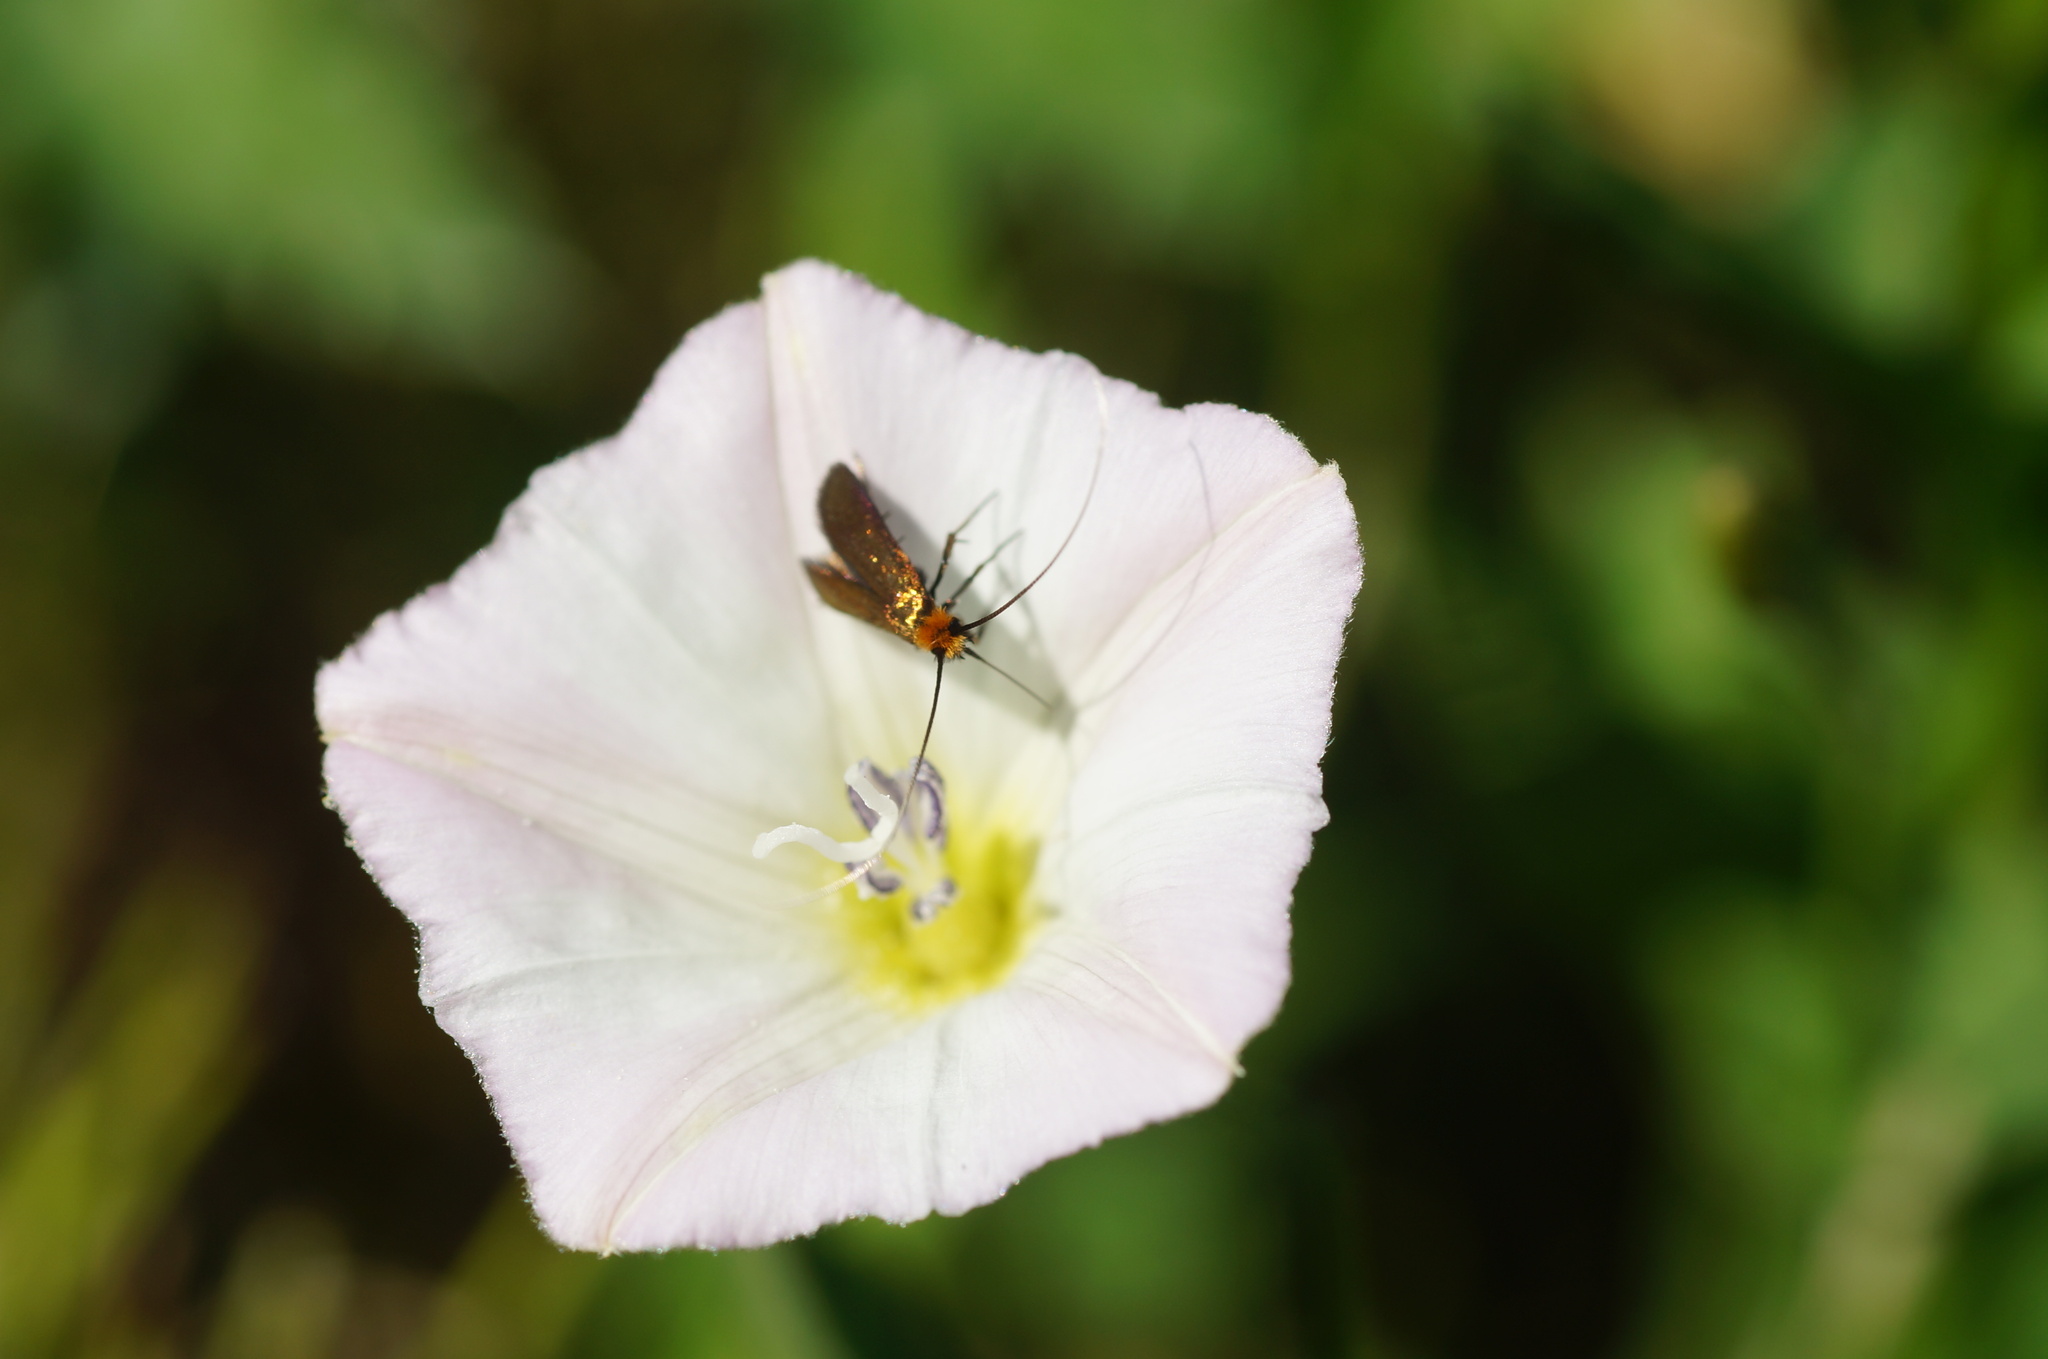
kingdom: Animalia
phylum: Arthropoda
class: Insecta
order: Lepidoptera
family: Adelidae
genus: Cauchas
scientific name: Cauchas rufimitrella
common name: Meadow long-horn
